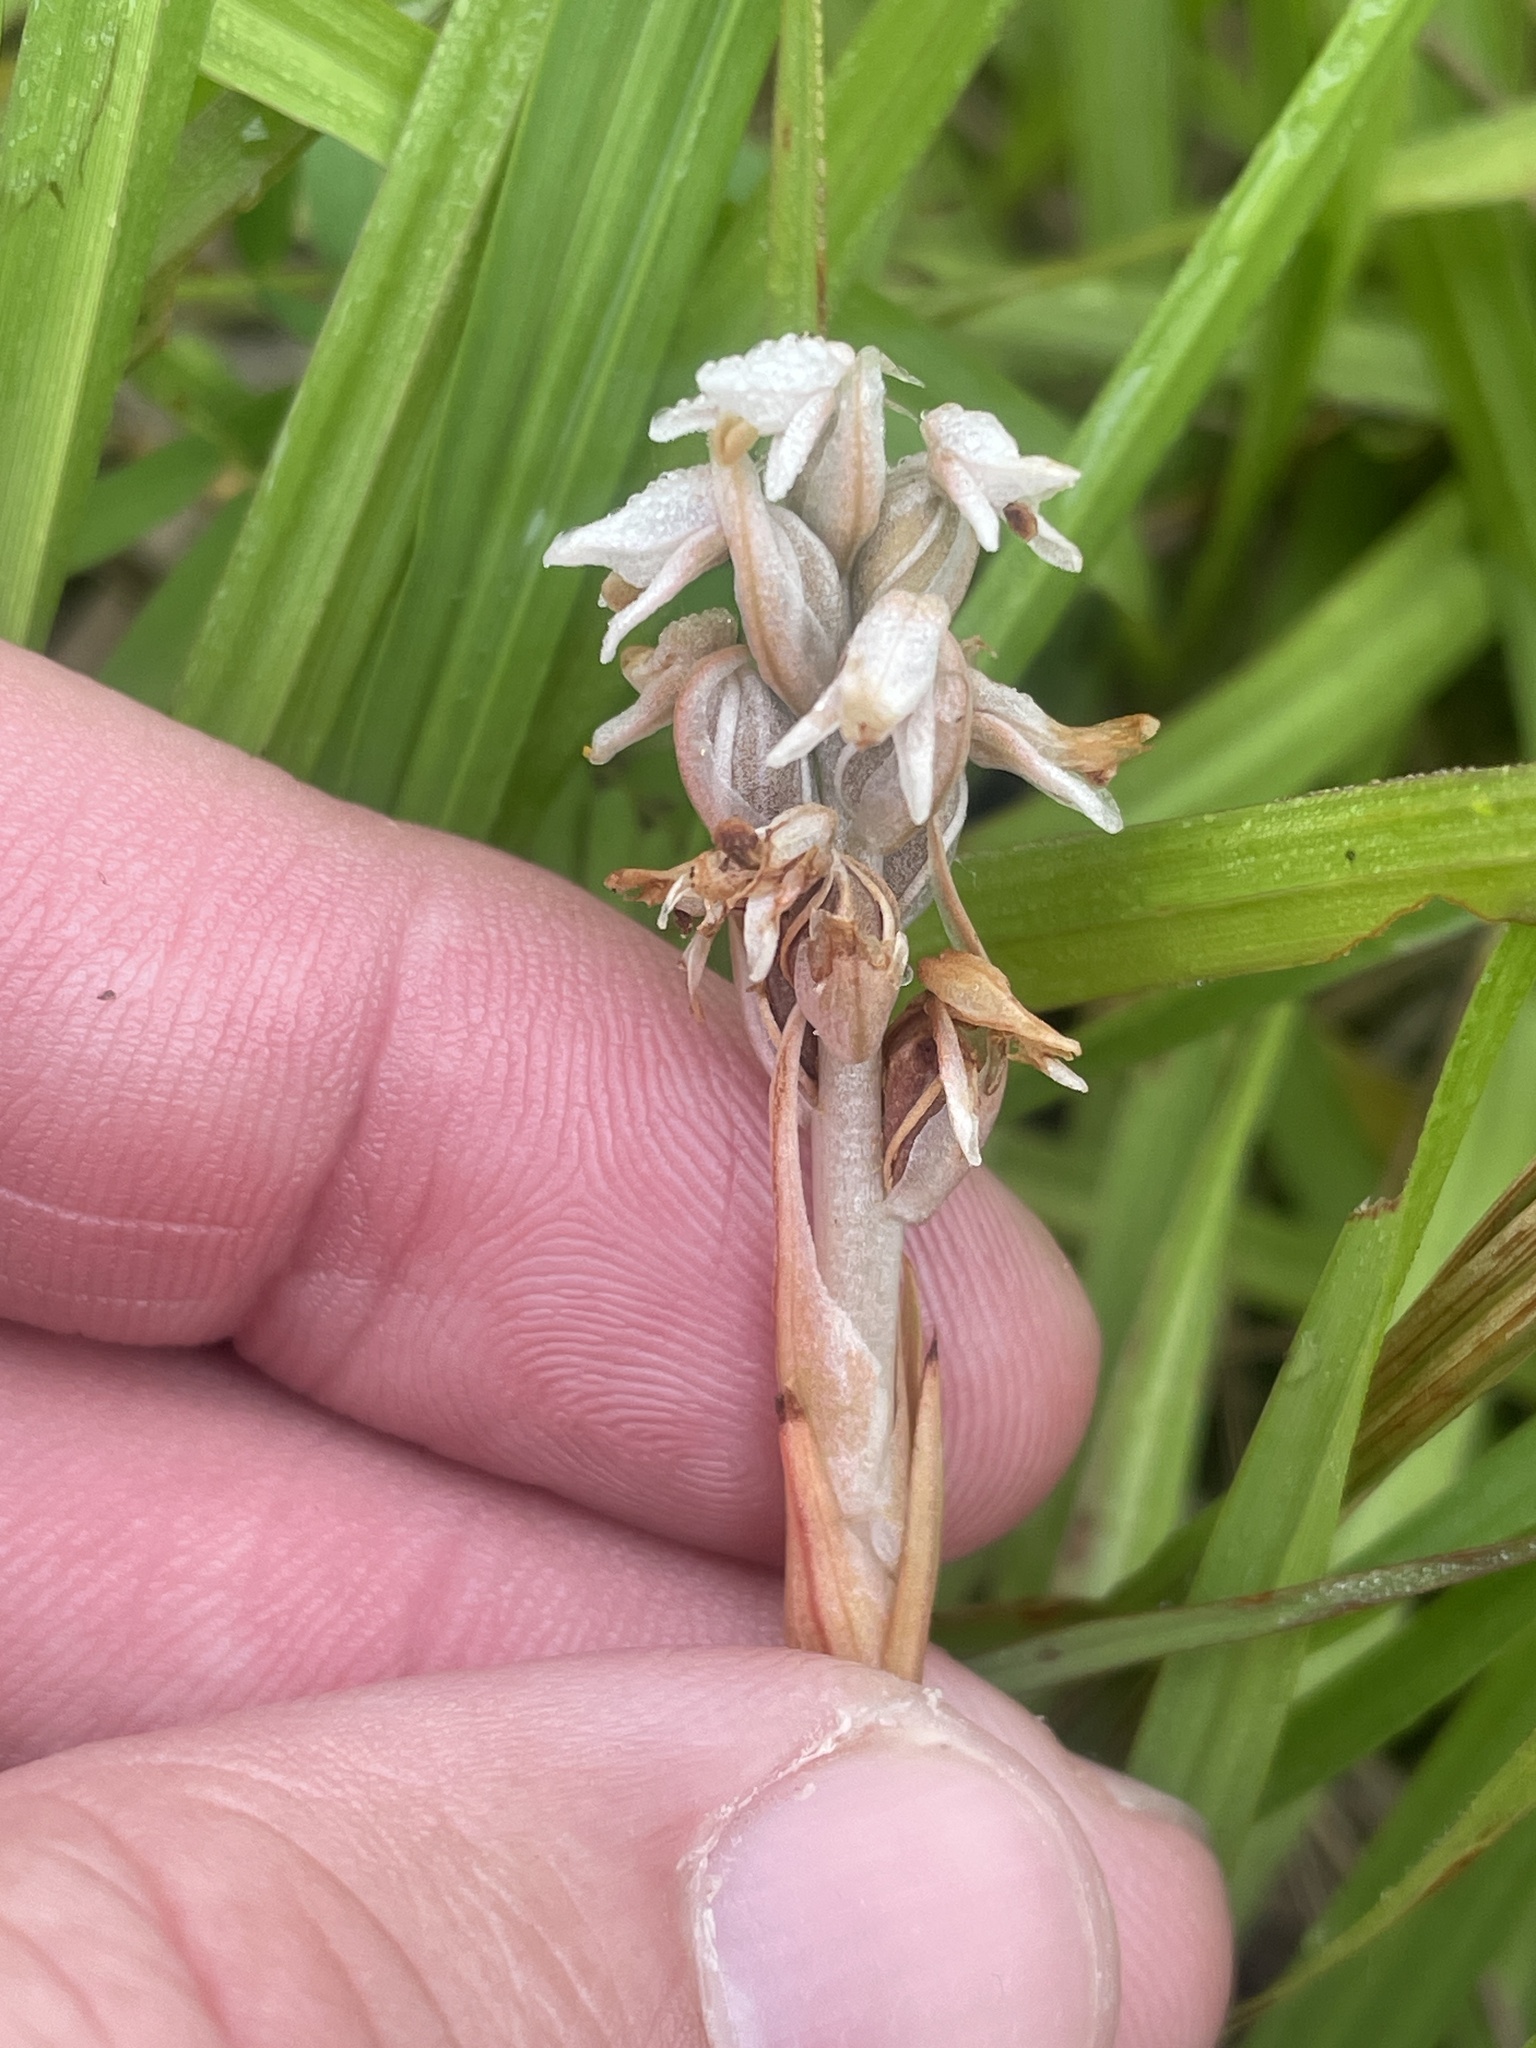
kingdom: Plantae
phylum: Tracheophyta
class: Liliopsida
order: Asparagales
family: Orchidaceae
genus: Zeuxine
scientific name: Zeuxine strateumatica
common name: Soldier's orchid
